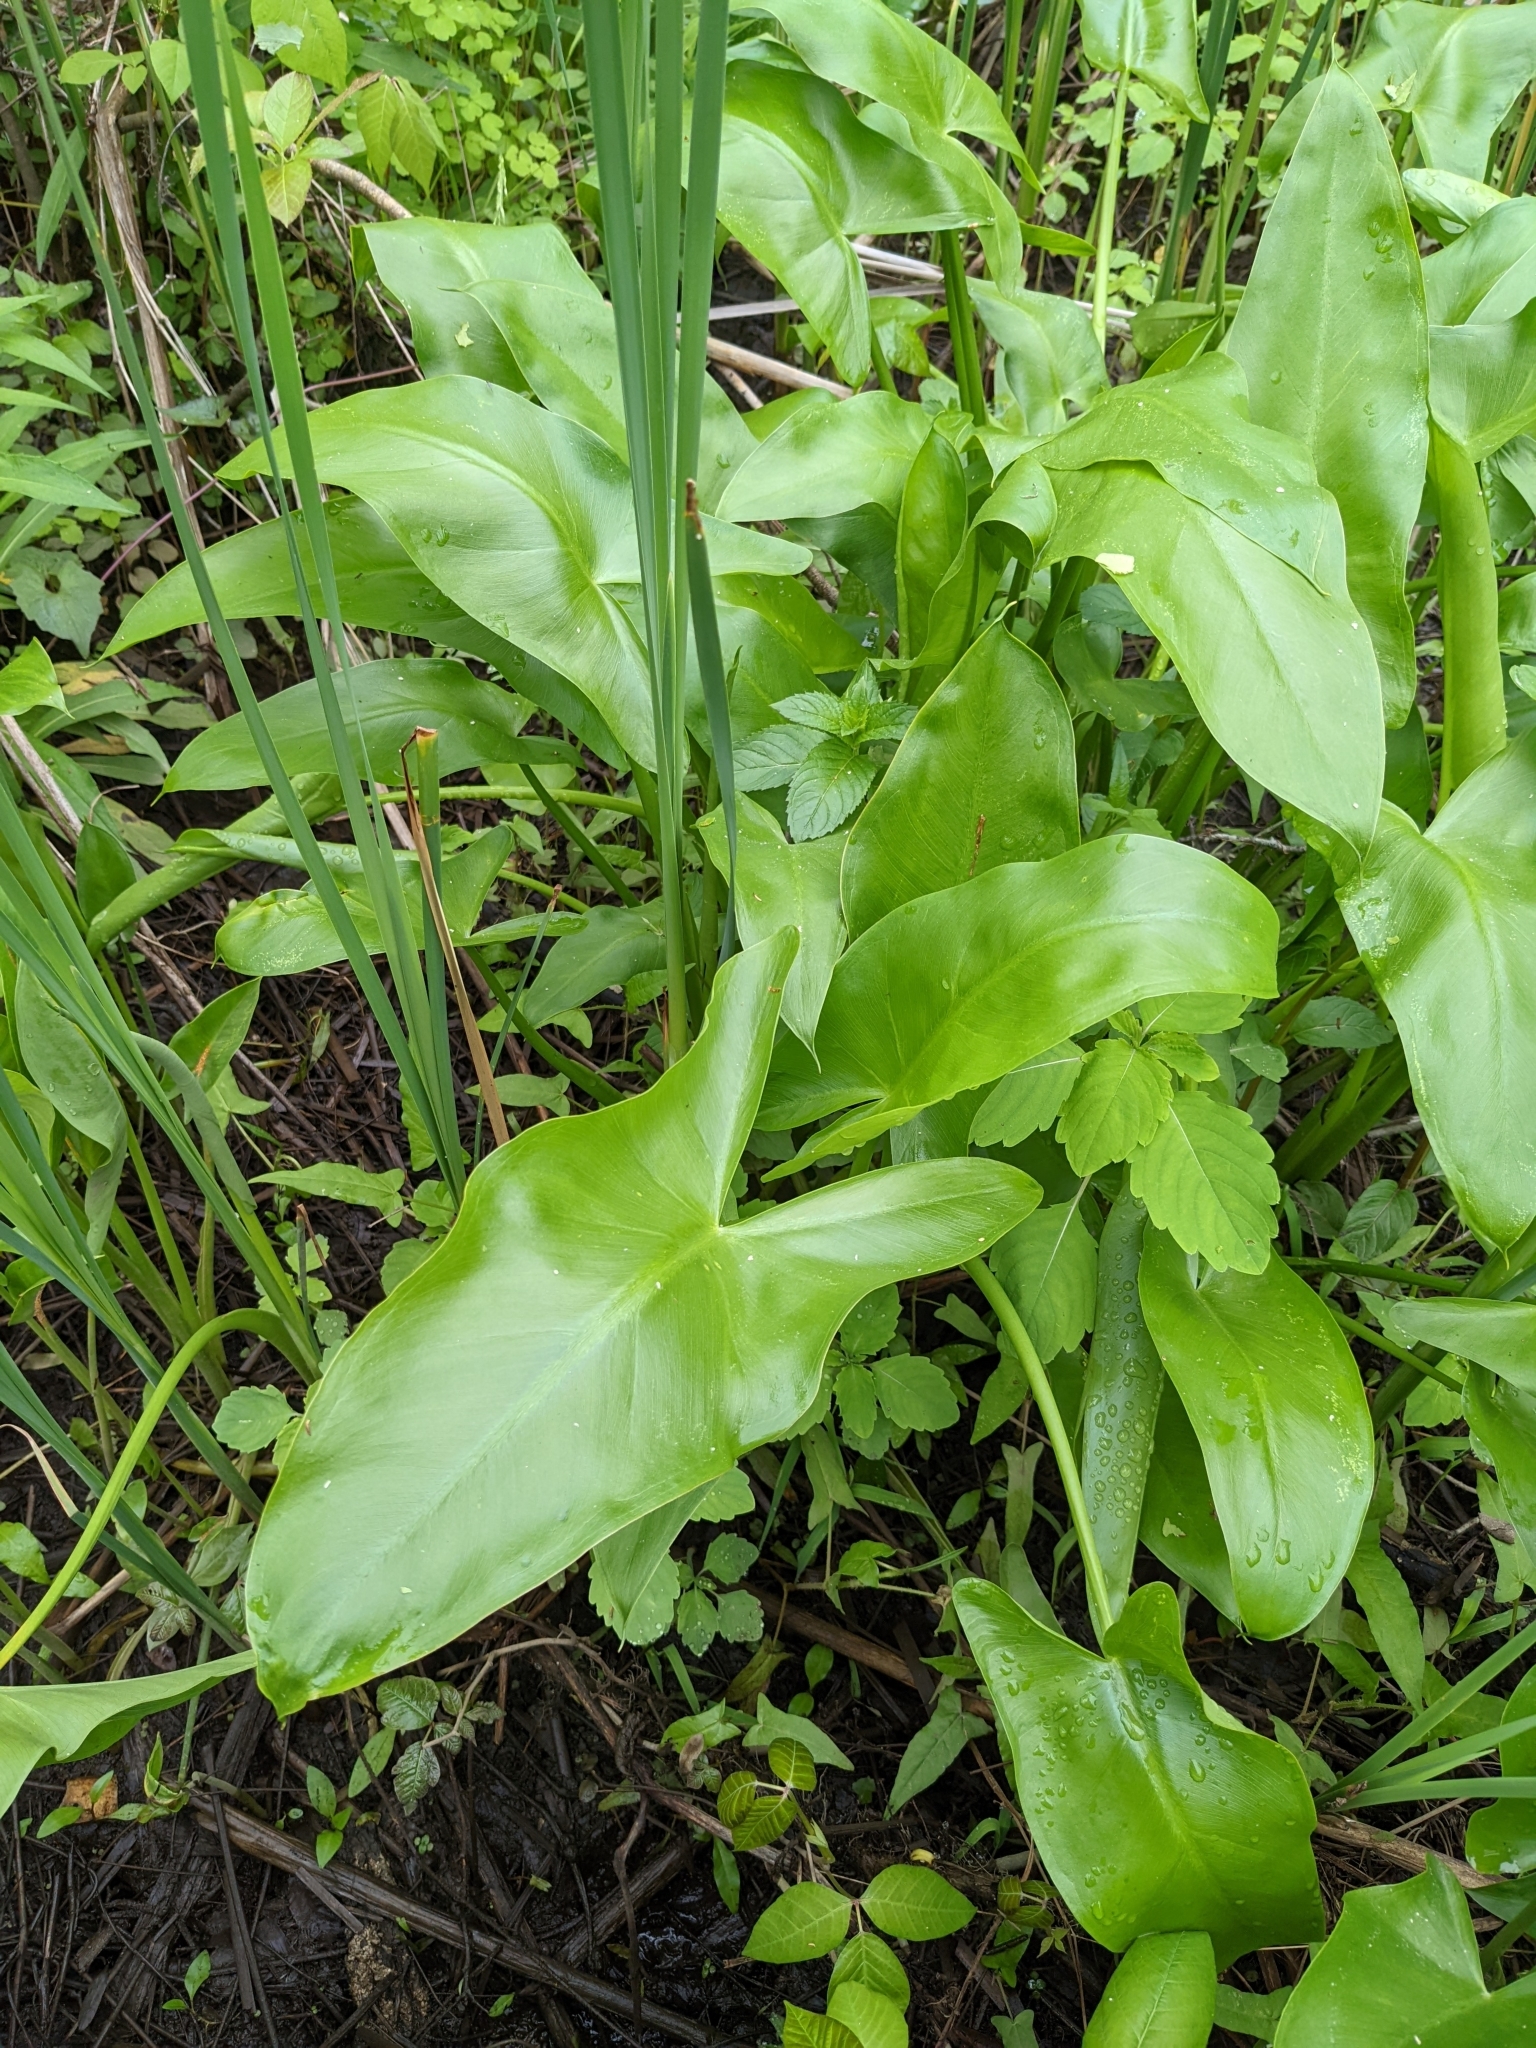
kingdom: Plantae
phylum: Tracheophyta
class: Liliopsida
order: Alismatales
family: Araceae
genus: Peltandra
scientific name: Peltandra virginica
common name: Arrow arum
